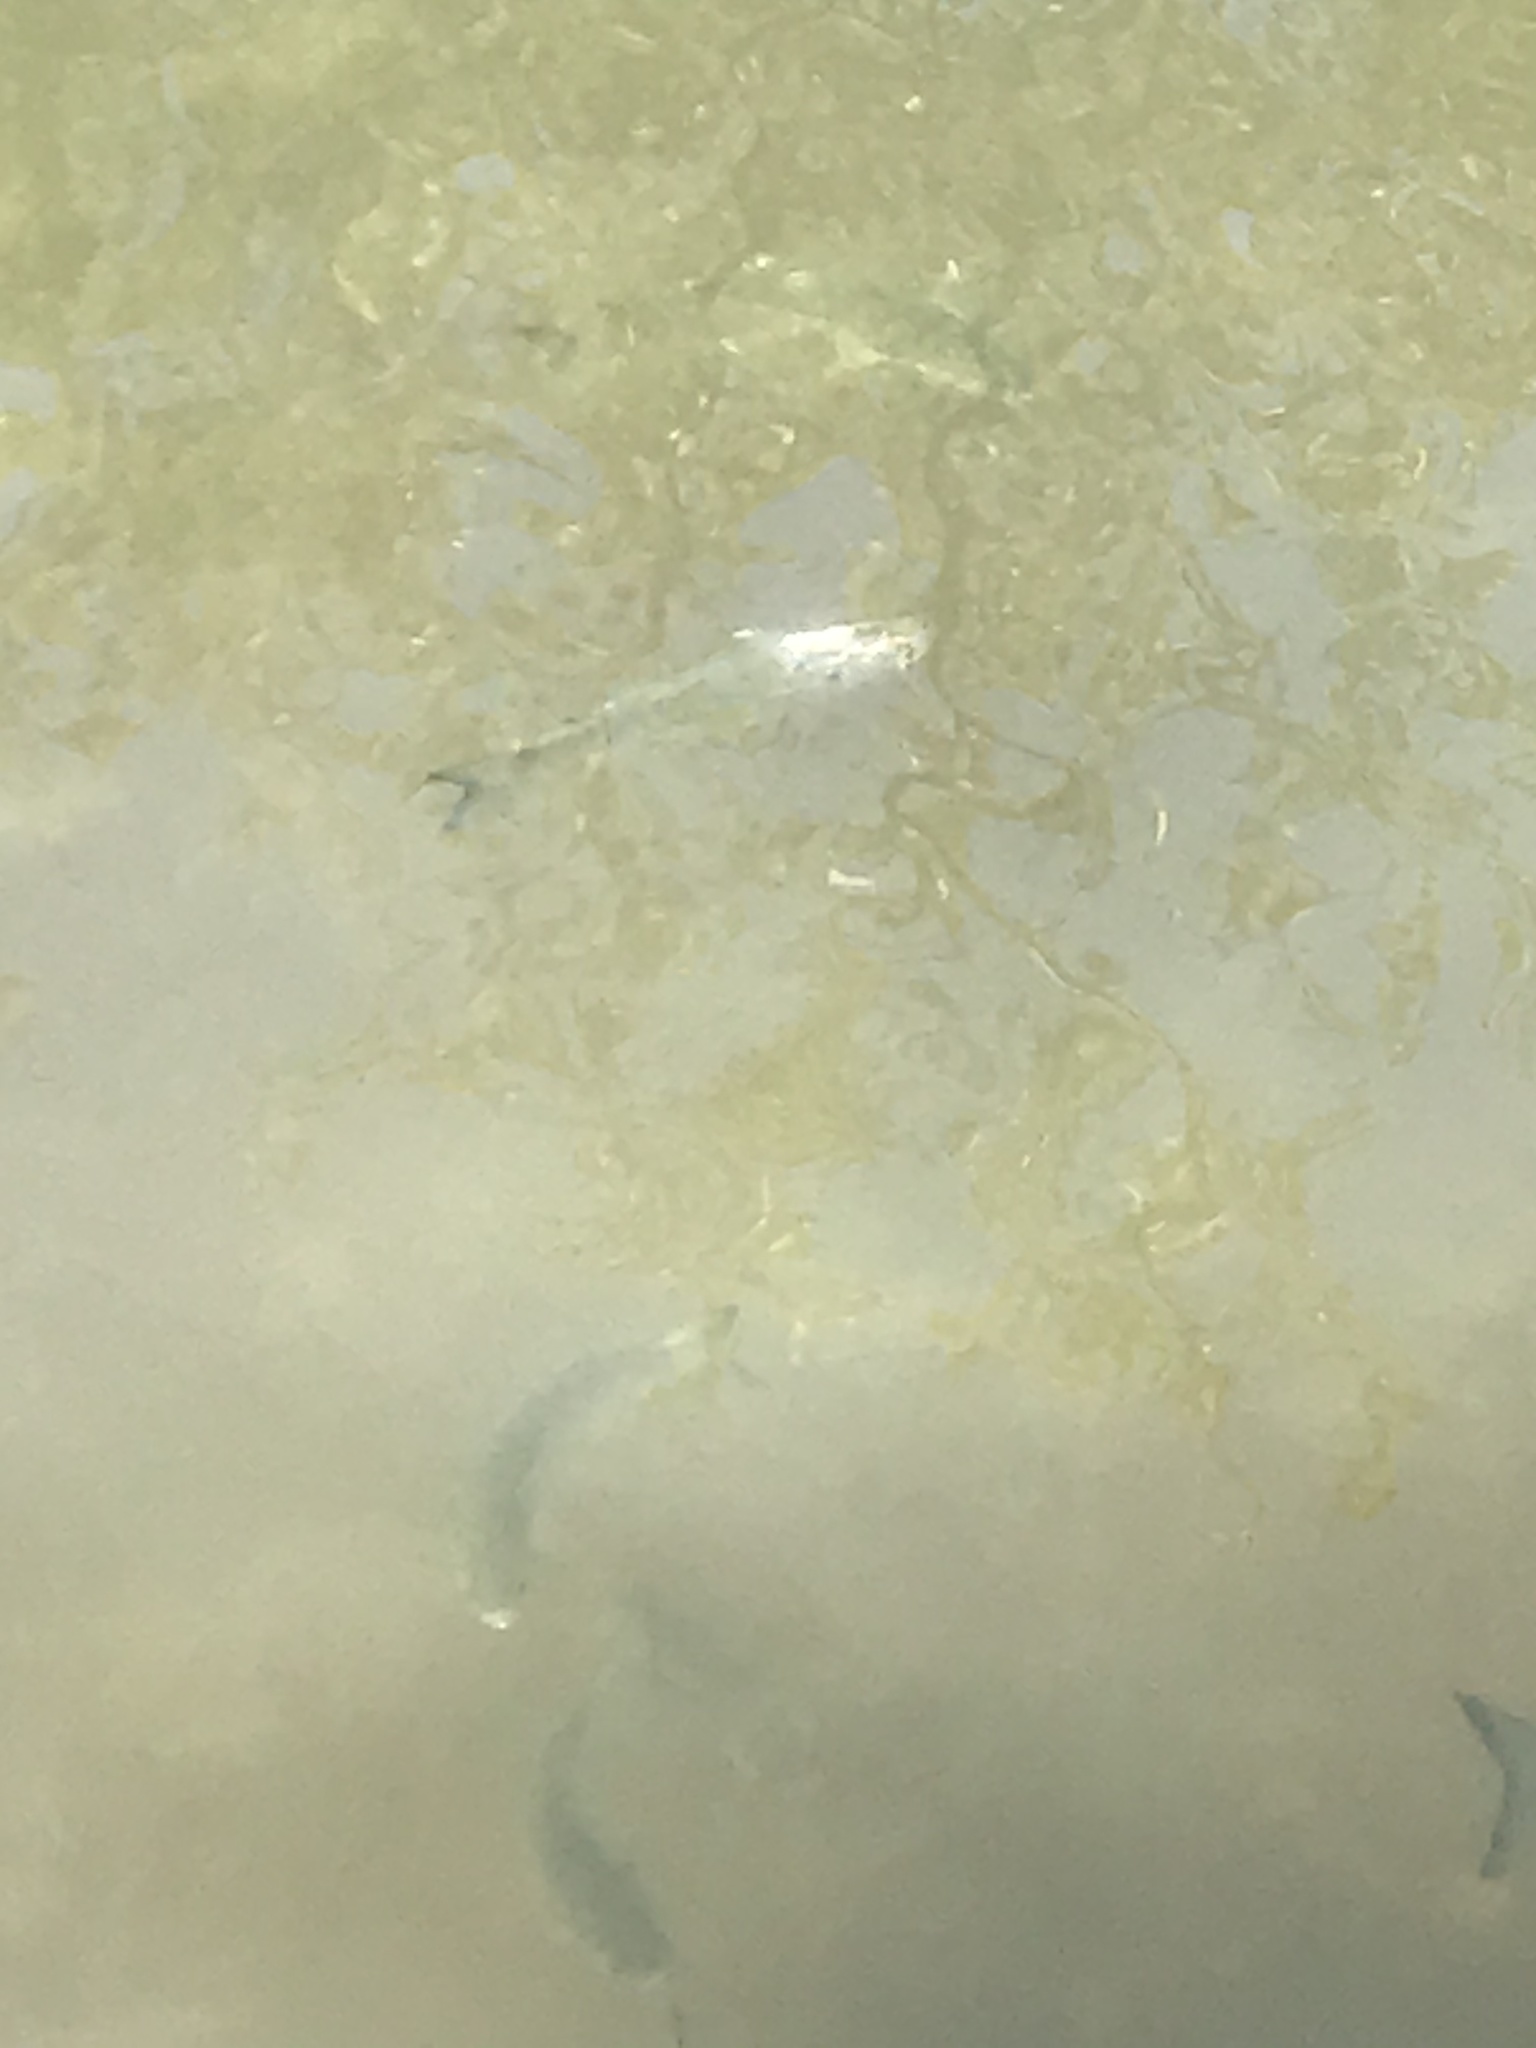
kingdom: Animalia
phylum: Chordata
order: Mugiliformes
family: Mugilidae
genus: Mugil
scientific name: Mugil curema
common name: White mullet
